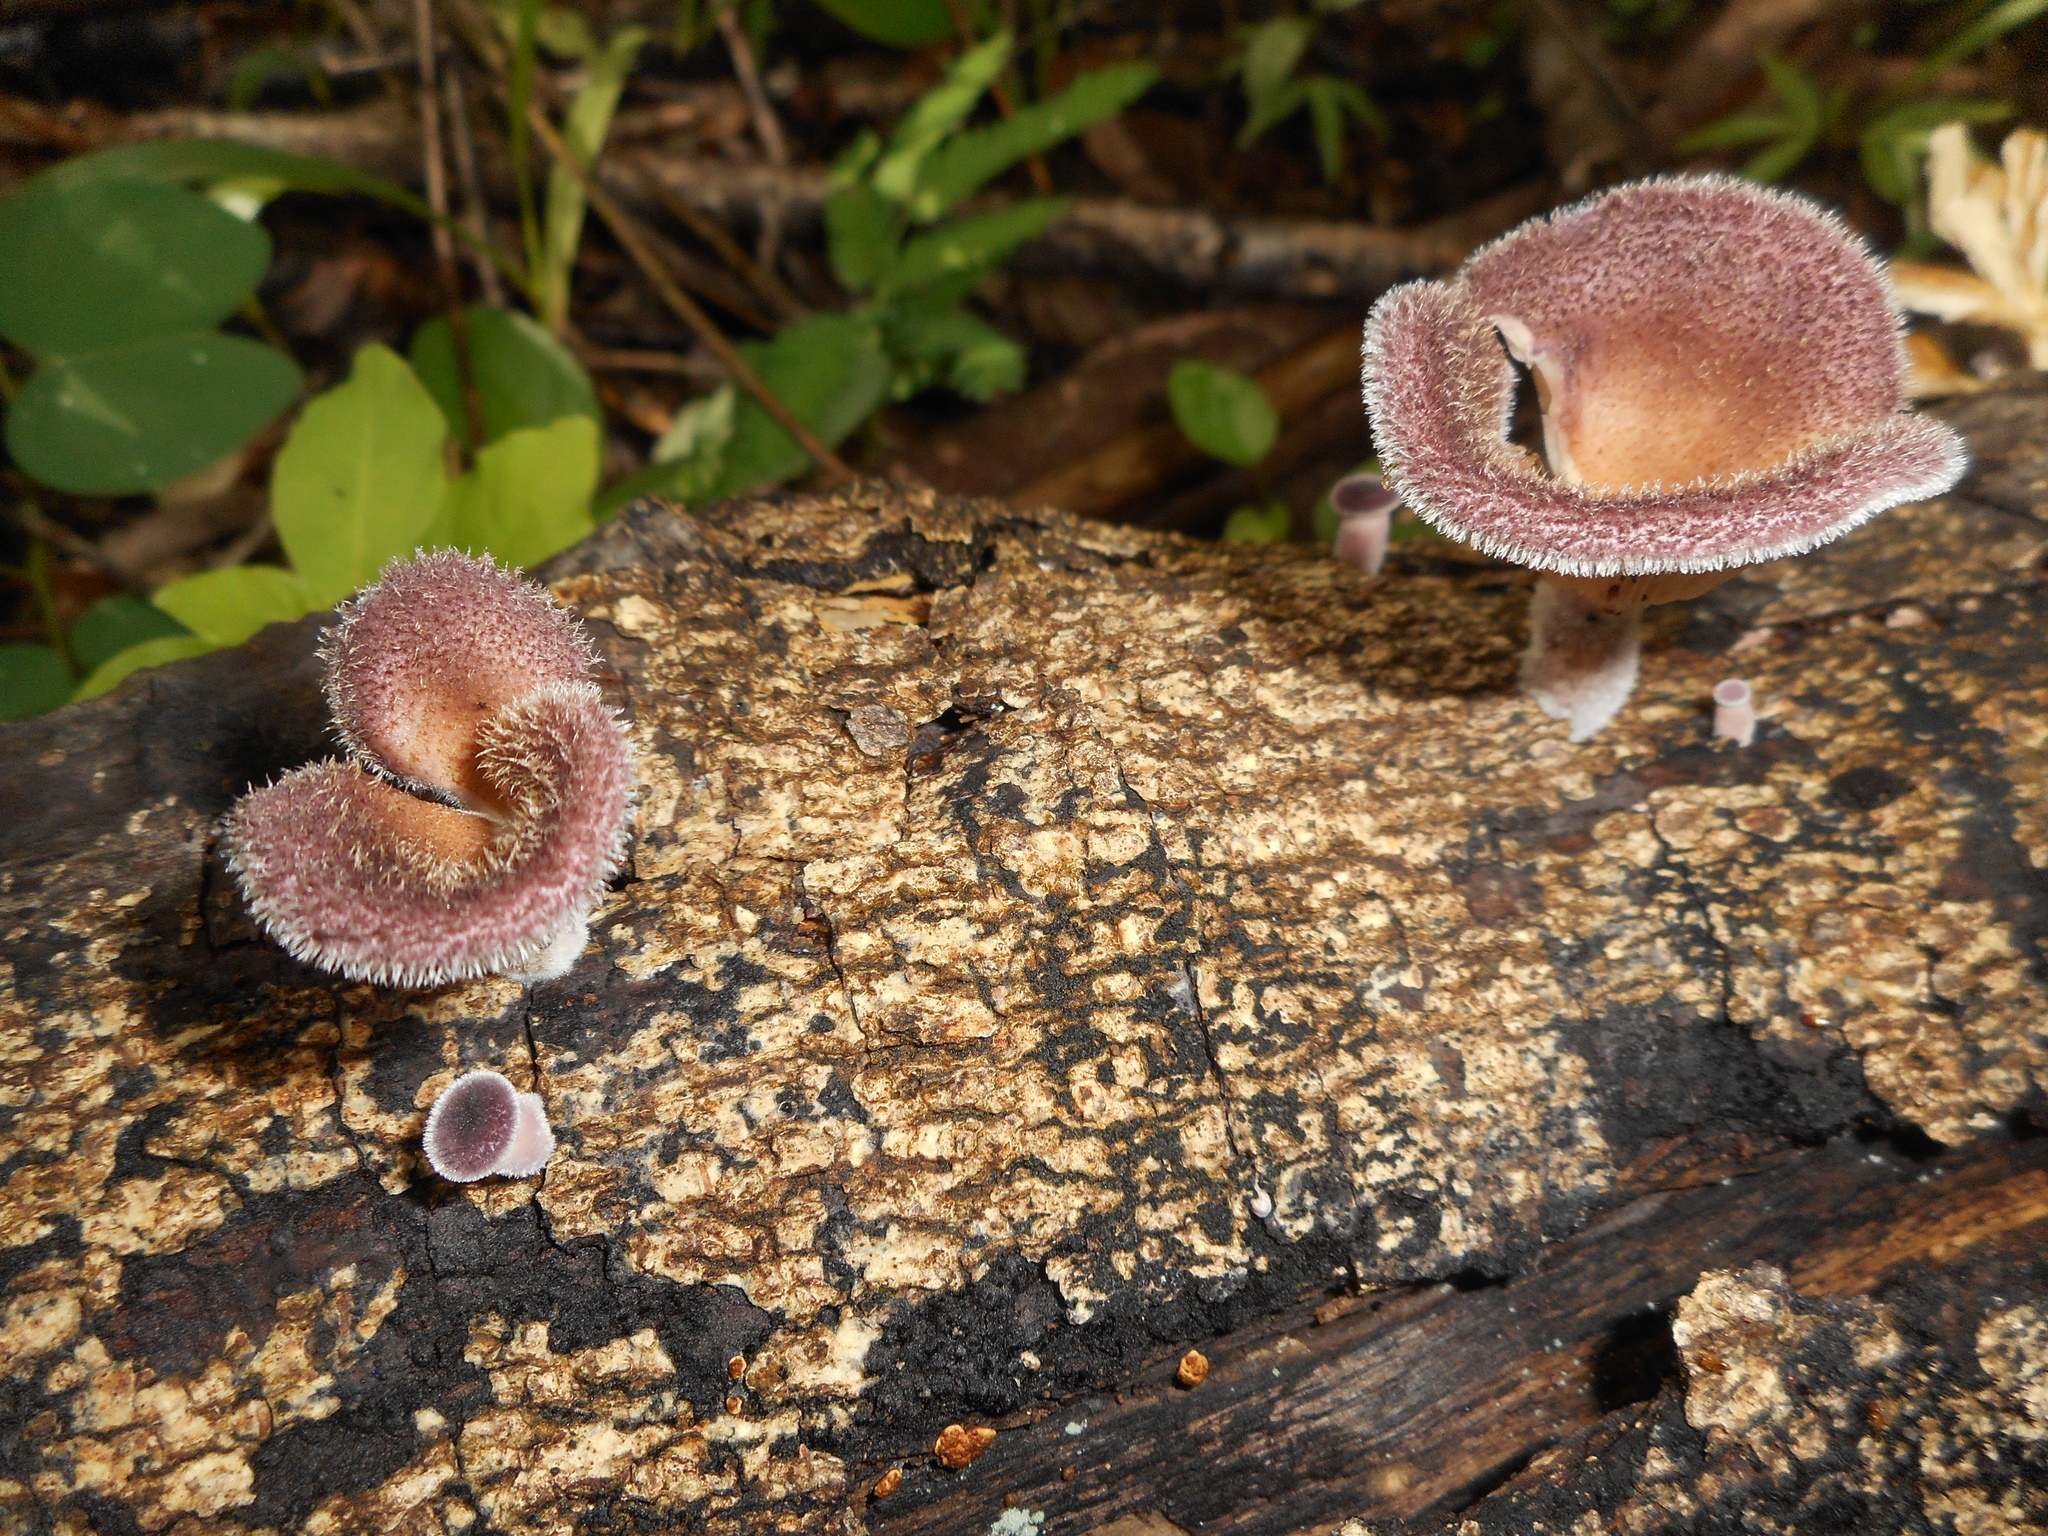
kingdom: Fungi
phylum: Basidiomycota
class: Agaricomycetes
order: Polyporales
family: Panaceae
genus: Panus
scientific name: Panus neostrigosus
